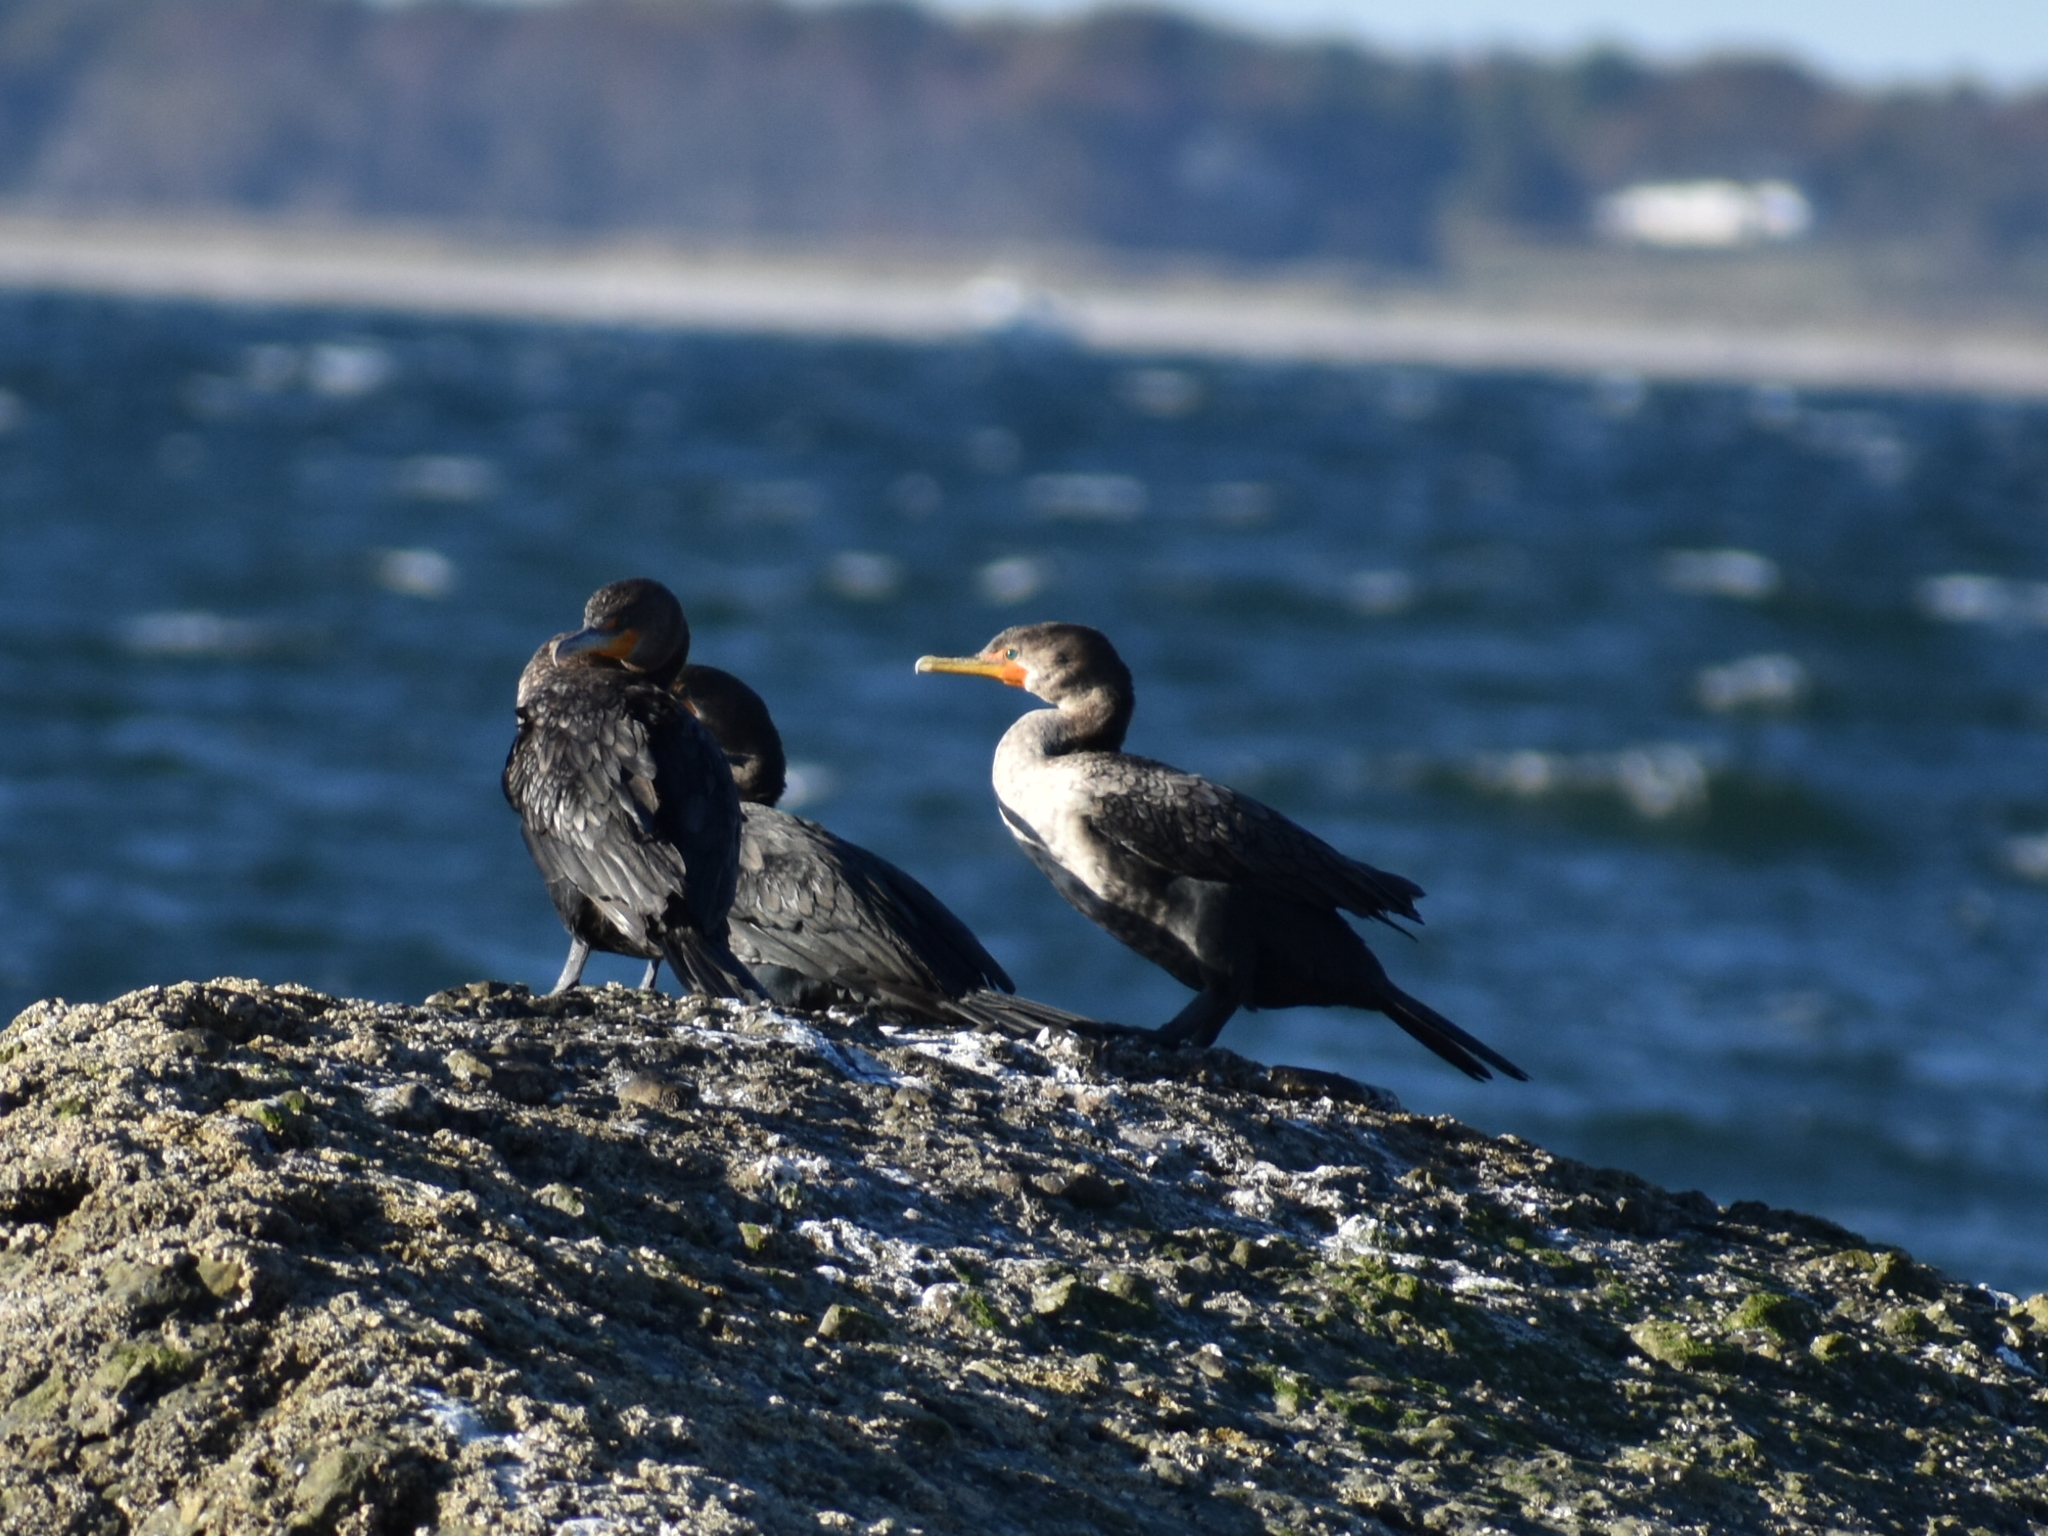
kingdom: Animalia
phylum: Chordata
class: Aves
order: Suliformes
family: Phalacrocoracidae
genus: Phalacrocorax
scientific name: Phalacrocorax auritus
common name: Double-crested cormorant
